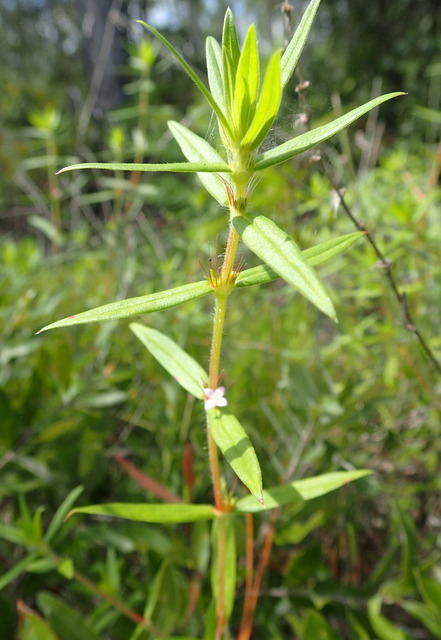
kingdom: Plantae
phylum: Tracheophyta
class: Magnoliopsida
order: Gentianales
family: Rubiaceae
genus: Hexasepalum
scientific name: Hexasepalum teres
